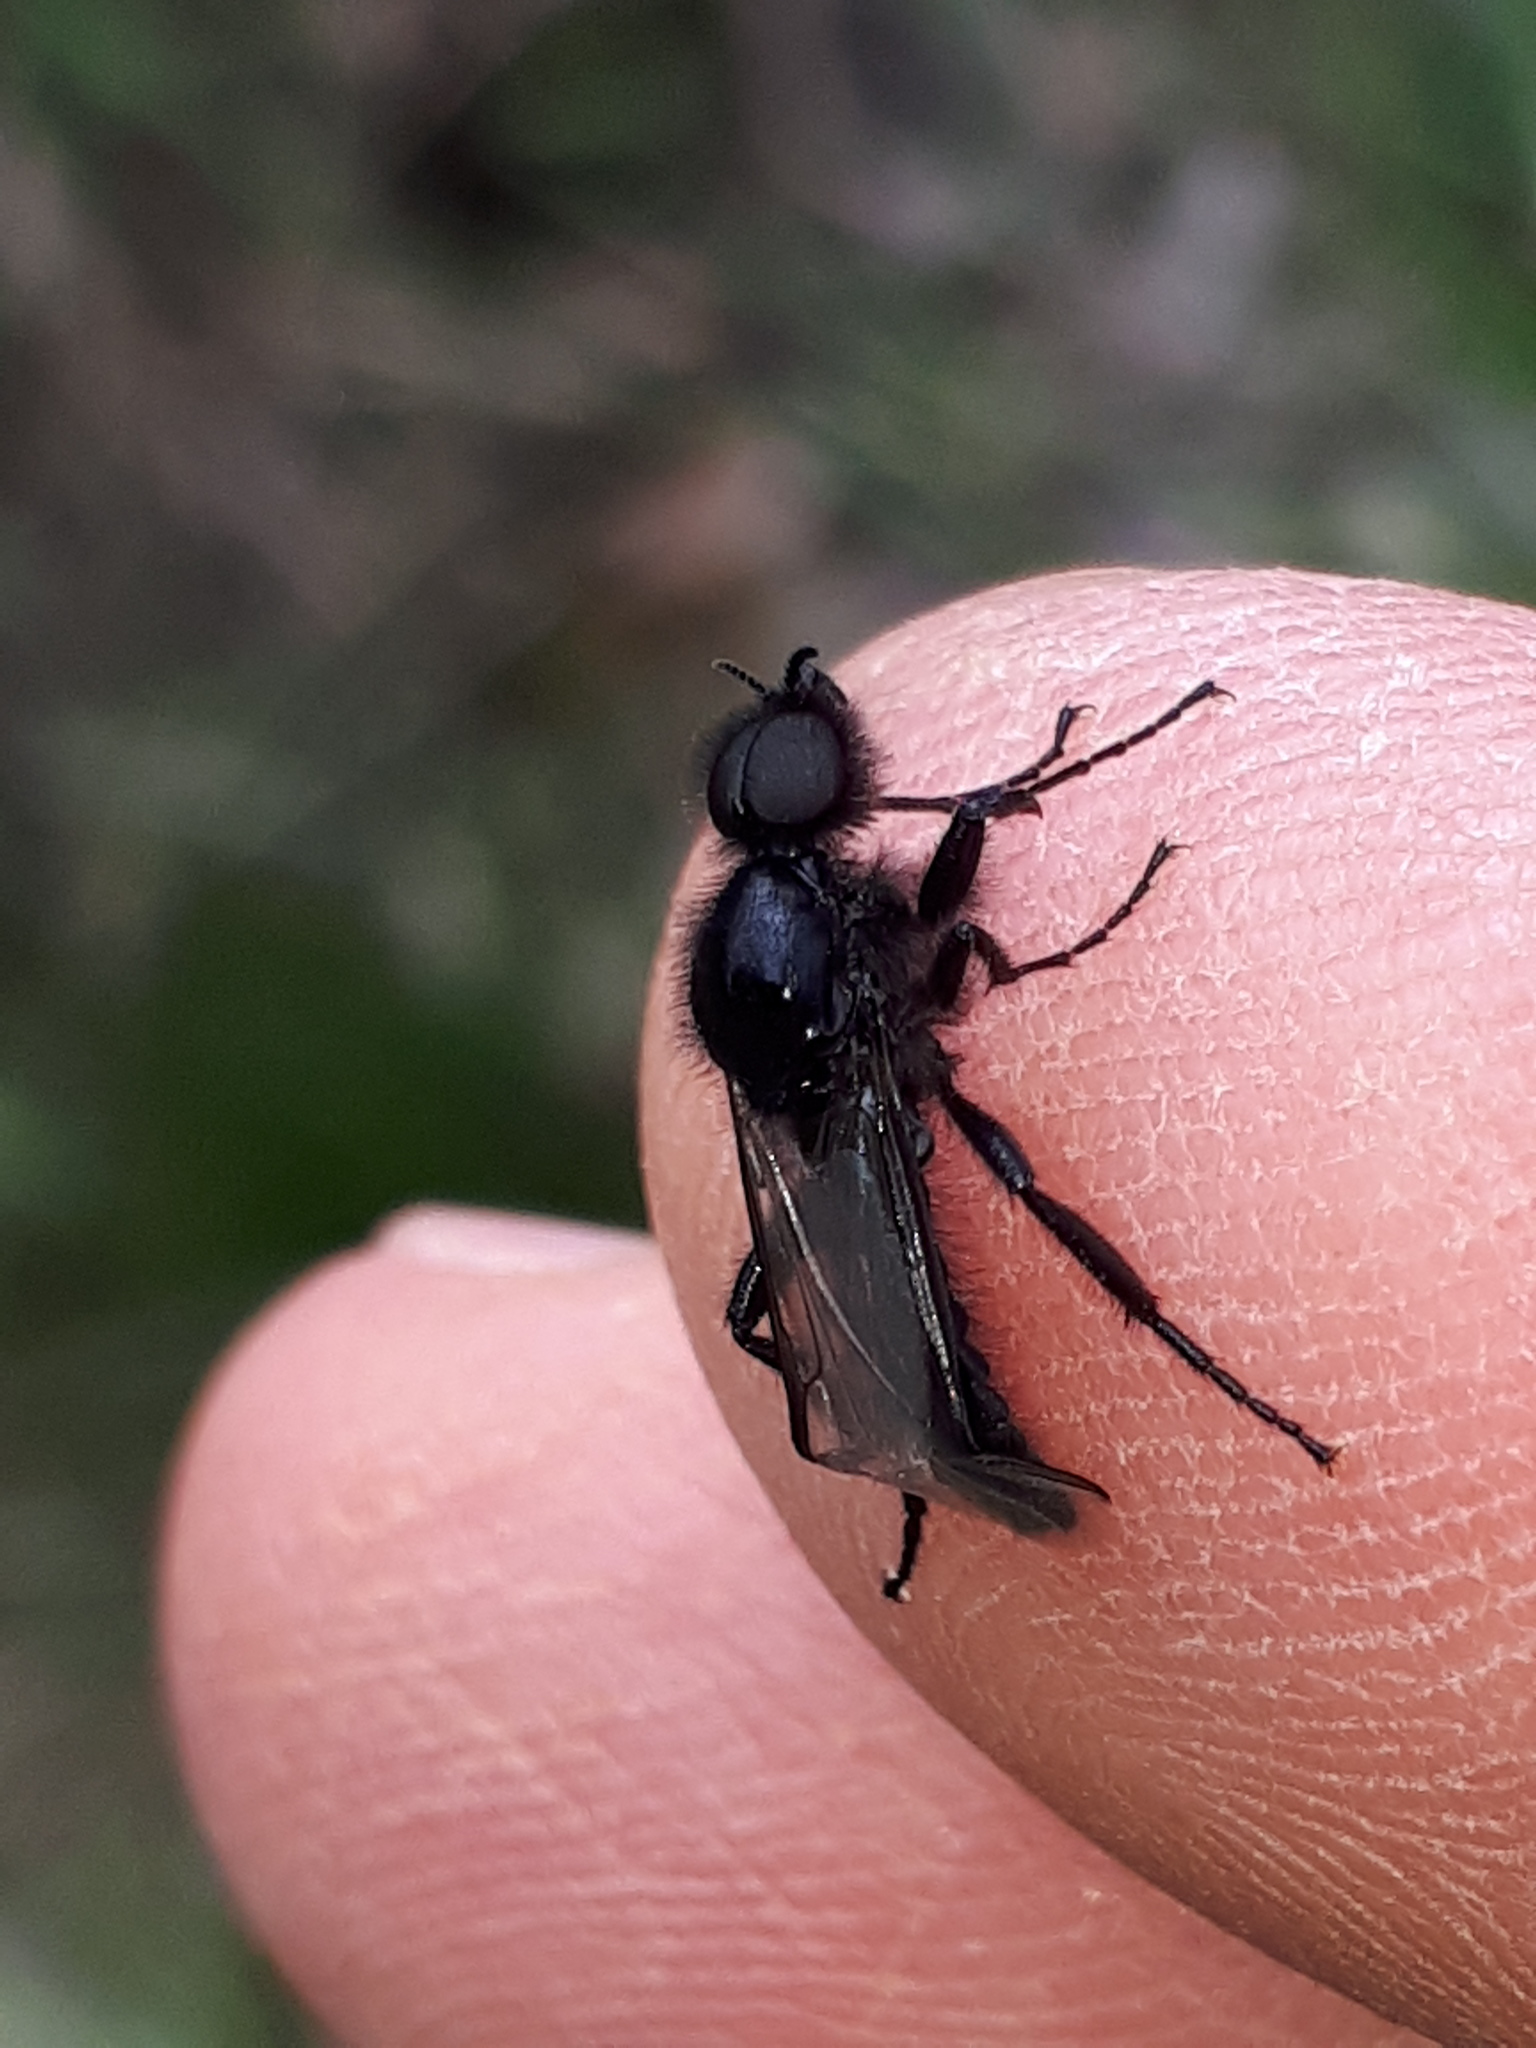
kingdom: Animalia
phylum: Arthropoda
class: Insecta
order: Diptera
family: Bibionidae
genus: Bibio
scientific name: Bibio marci
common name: St marks fly
